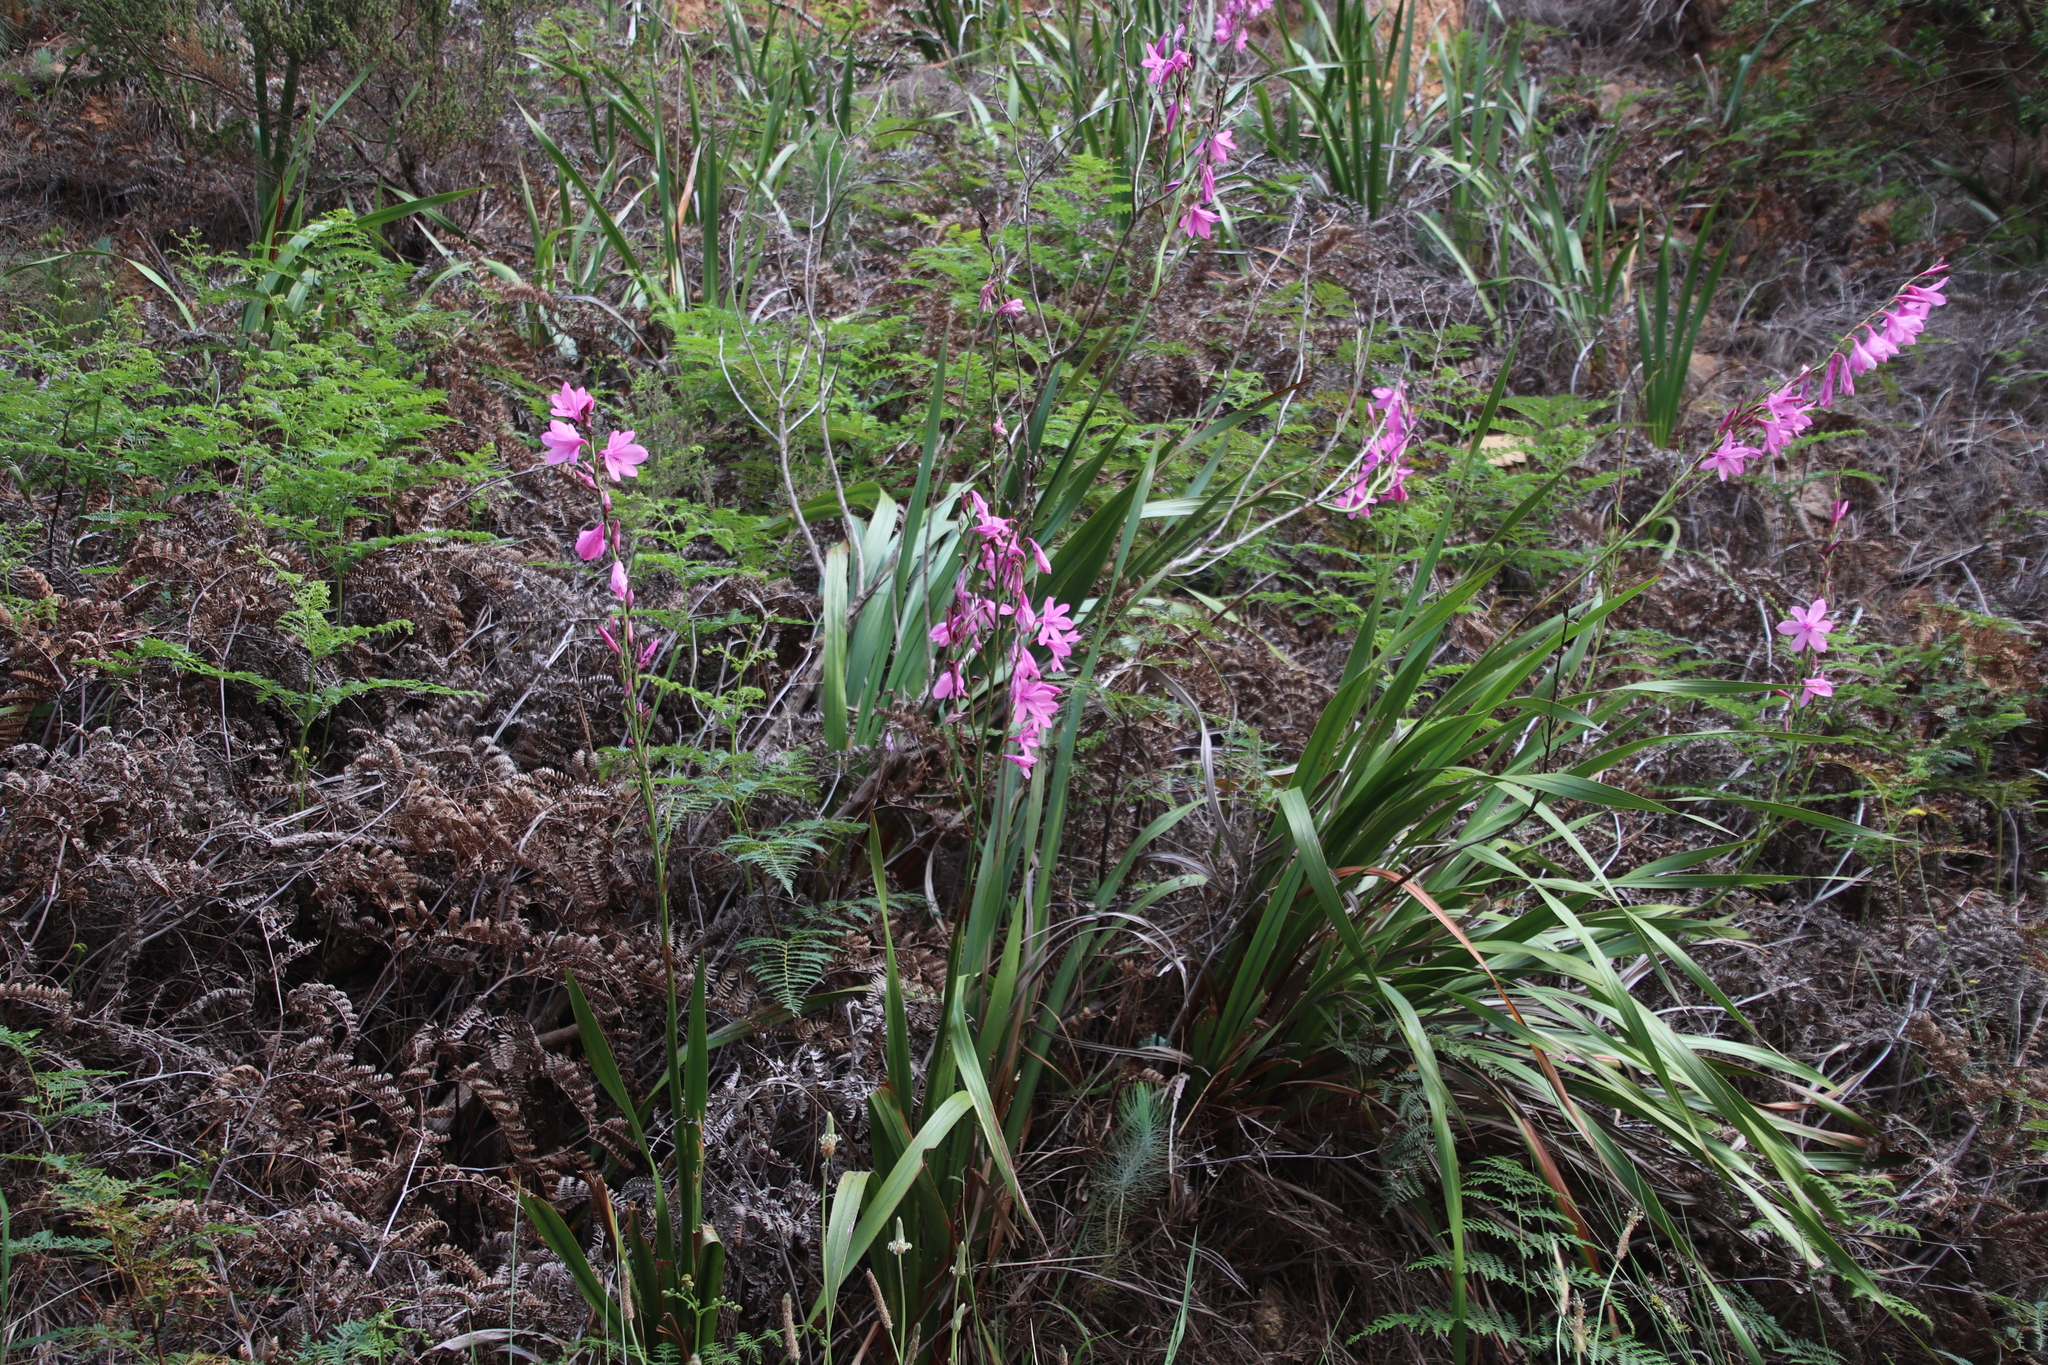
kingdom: Plantae
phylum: Tracheophyta
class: Liliopsida
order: Asparagales
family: Iridaceae
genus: Watsonia
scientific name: Watsonia borbonica
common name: Bugle-lily
